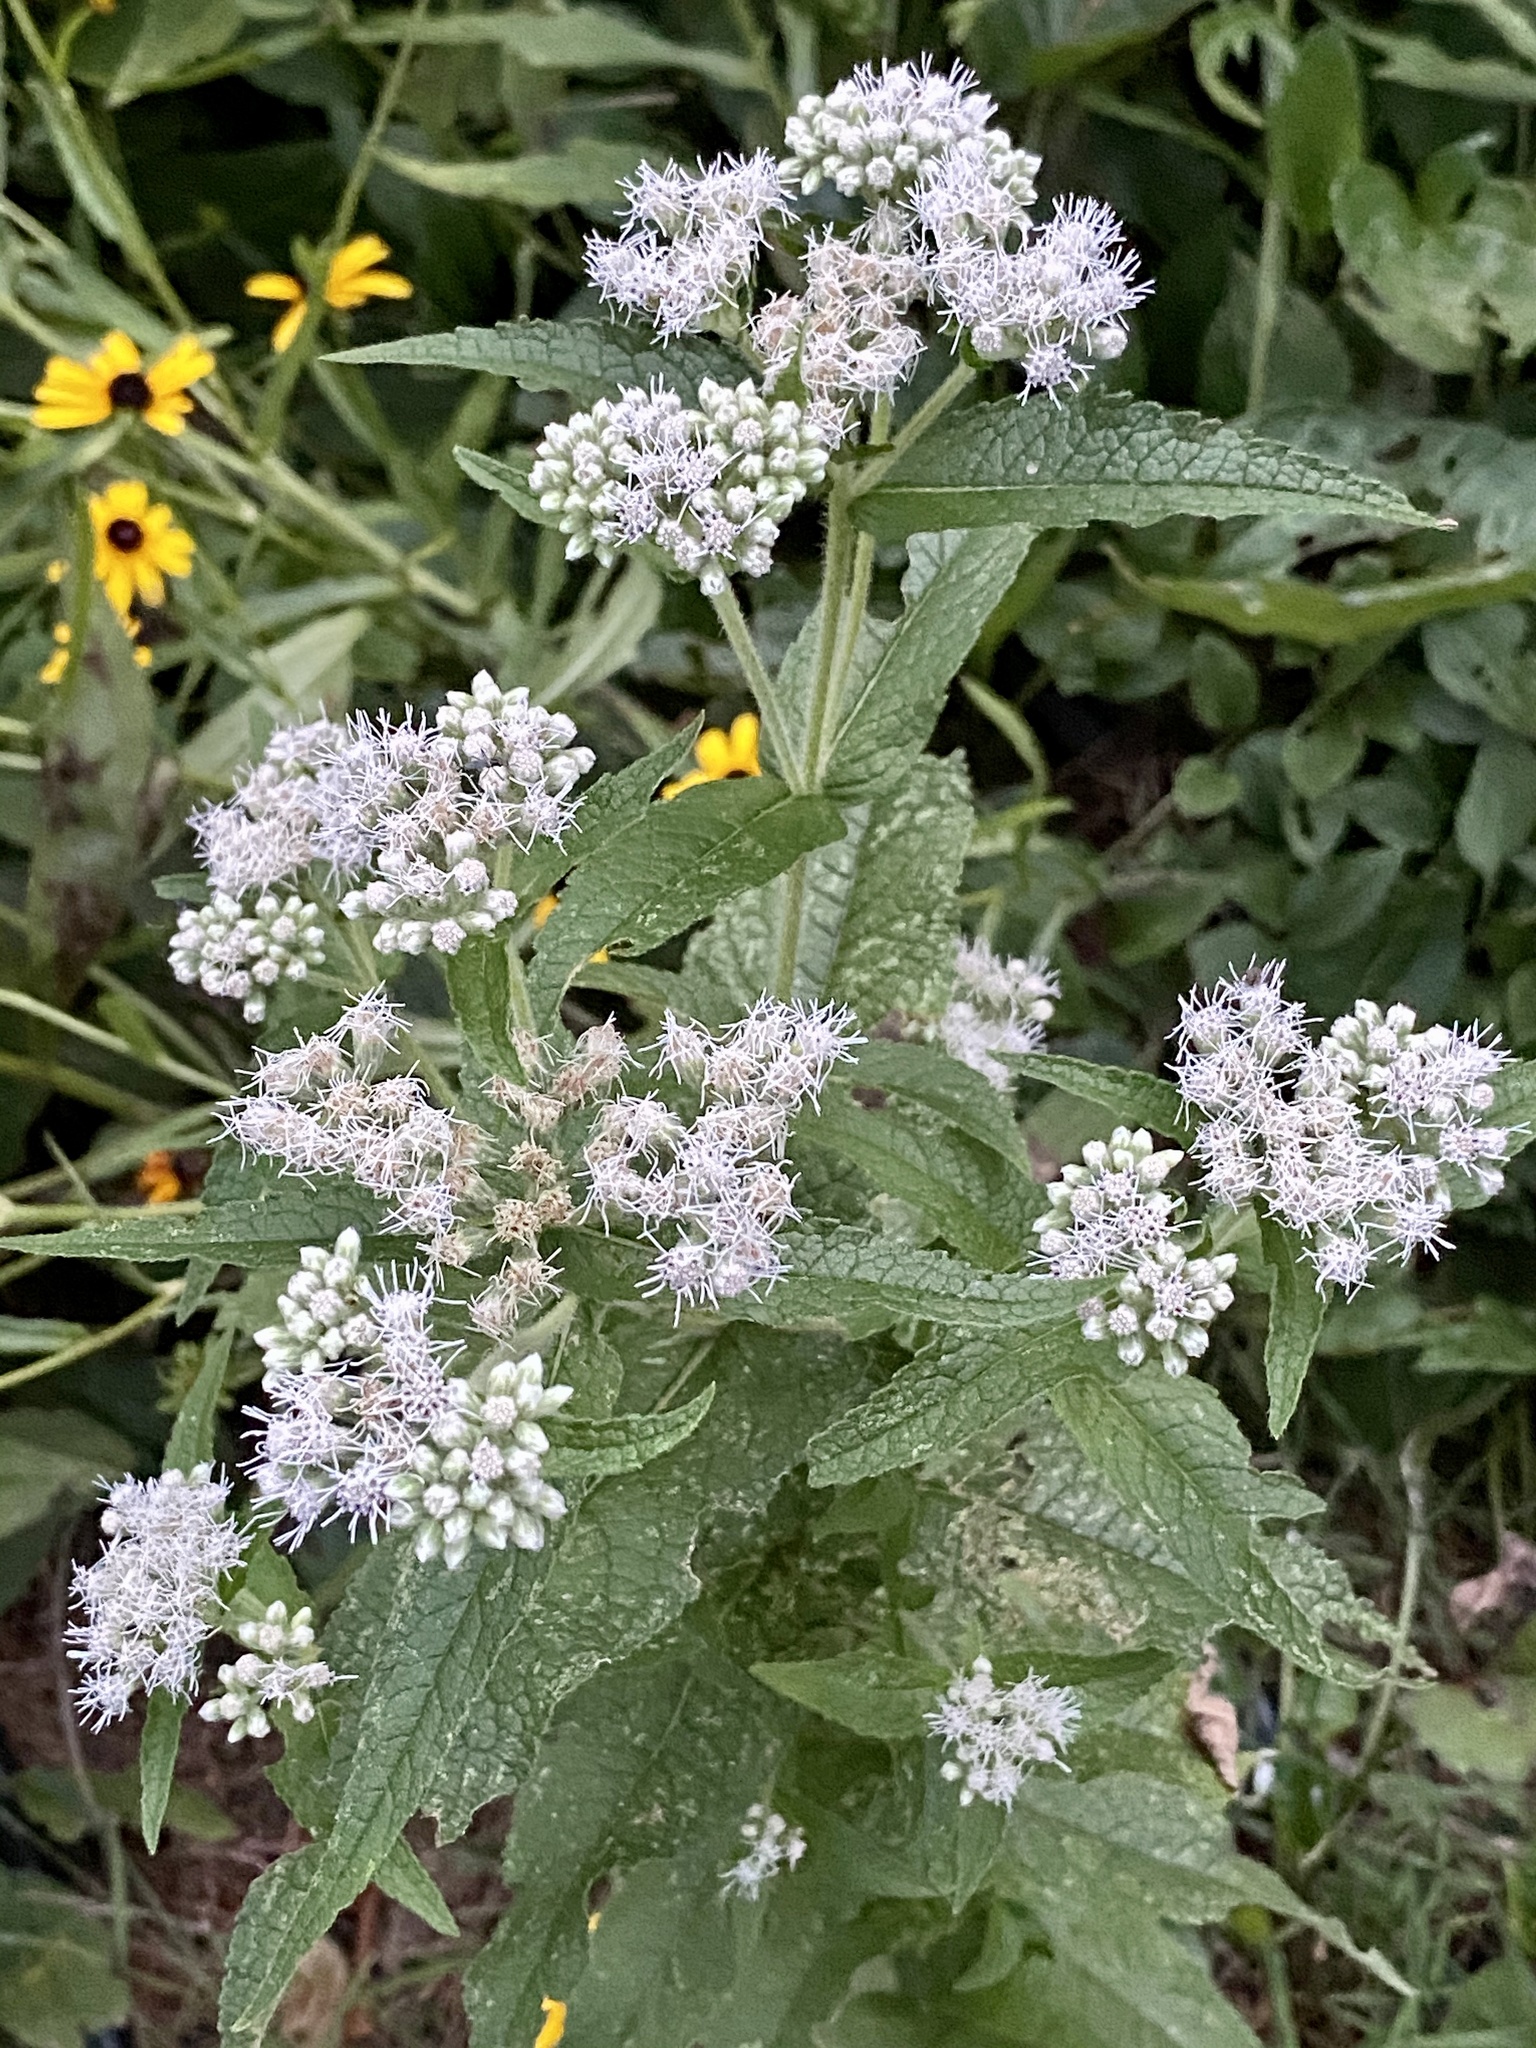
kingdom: Plantae
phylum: Tracheophyta
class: Magnoliopsida
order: Asterales
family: Asteraceae
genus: Eupatorium
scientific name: Eupatorium perfoliatum
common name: Boneset
